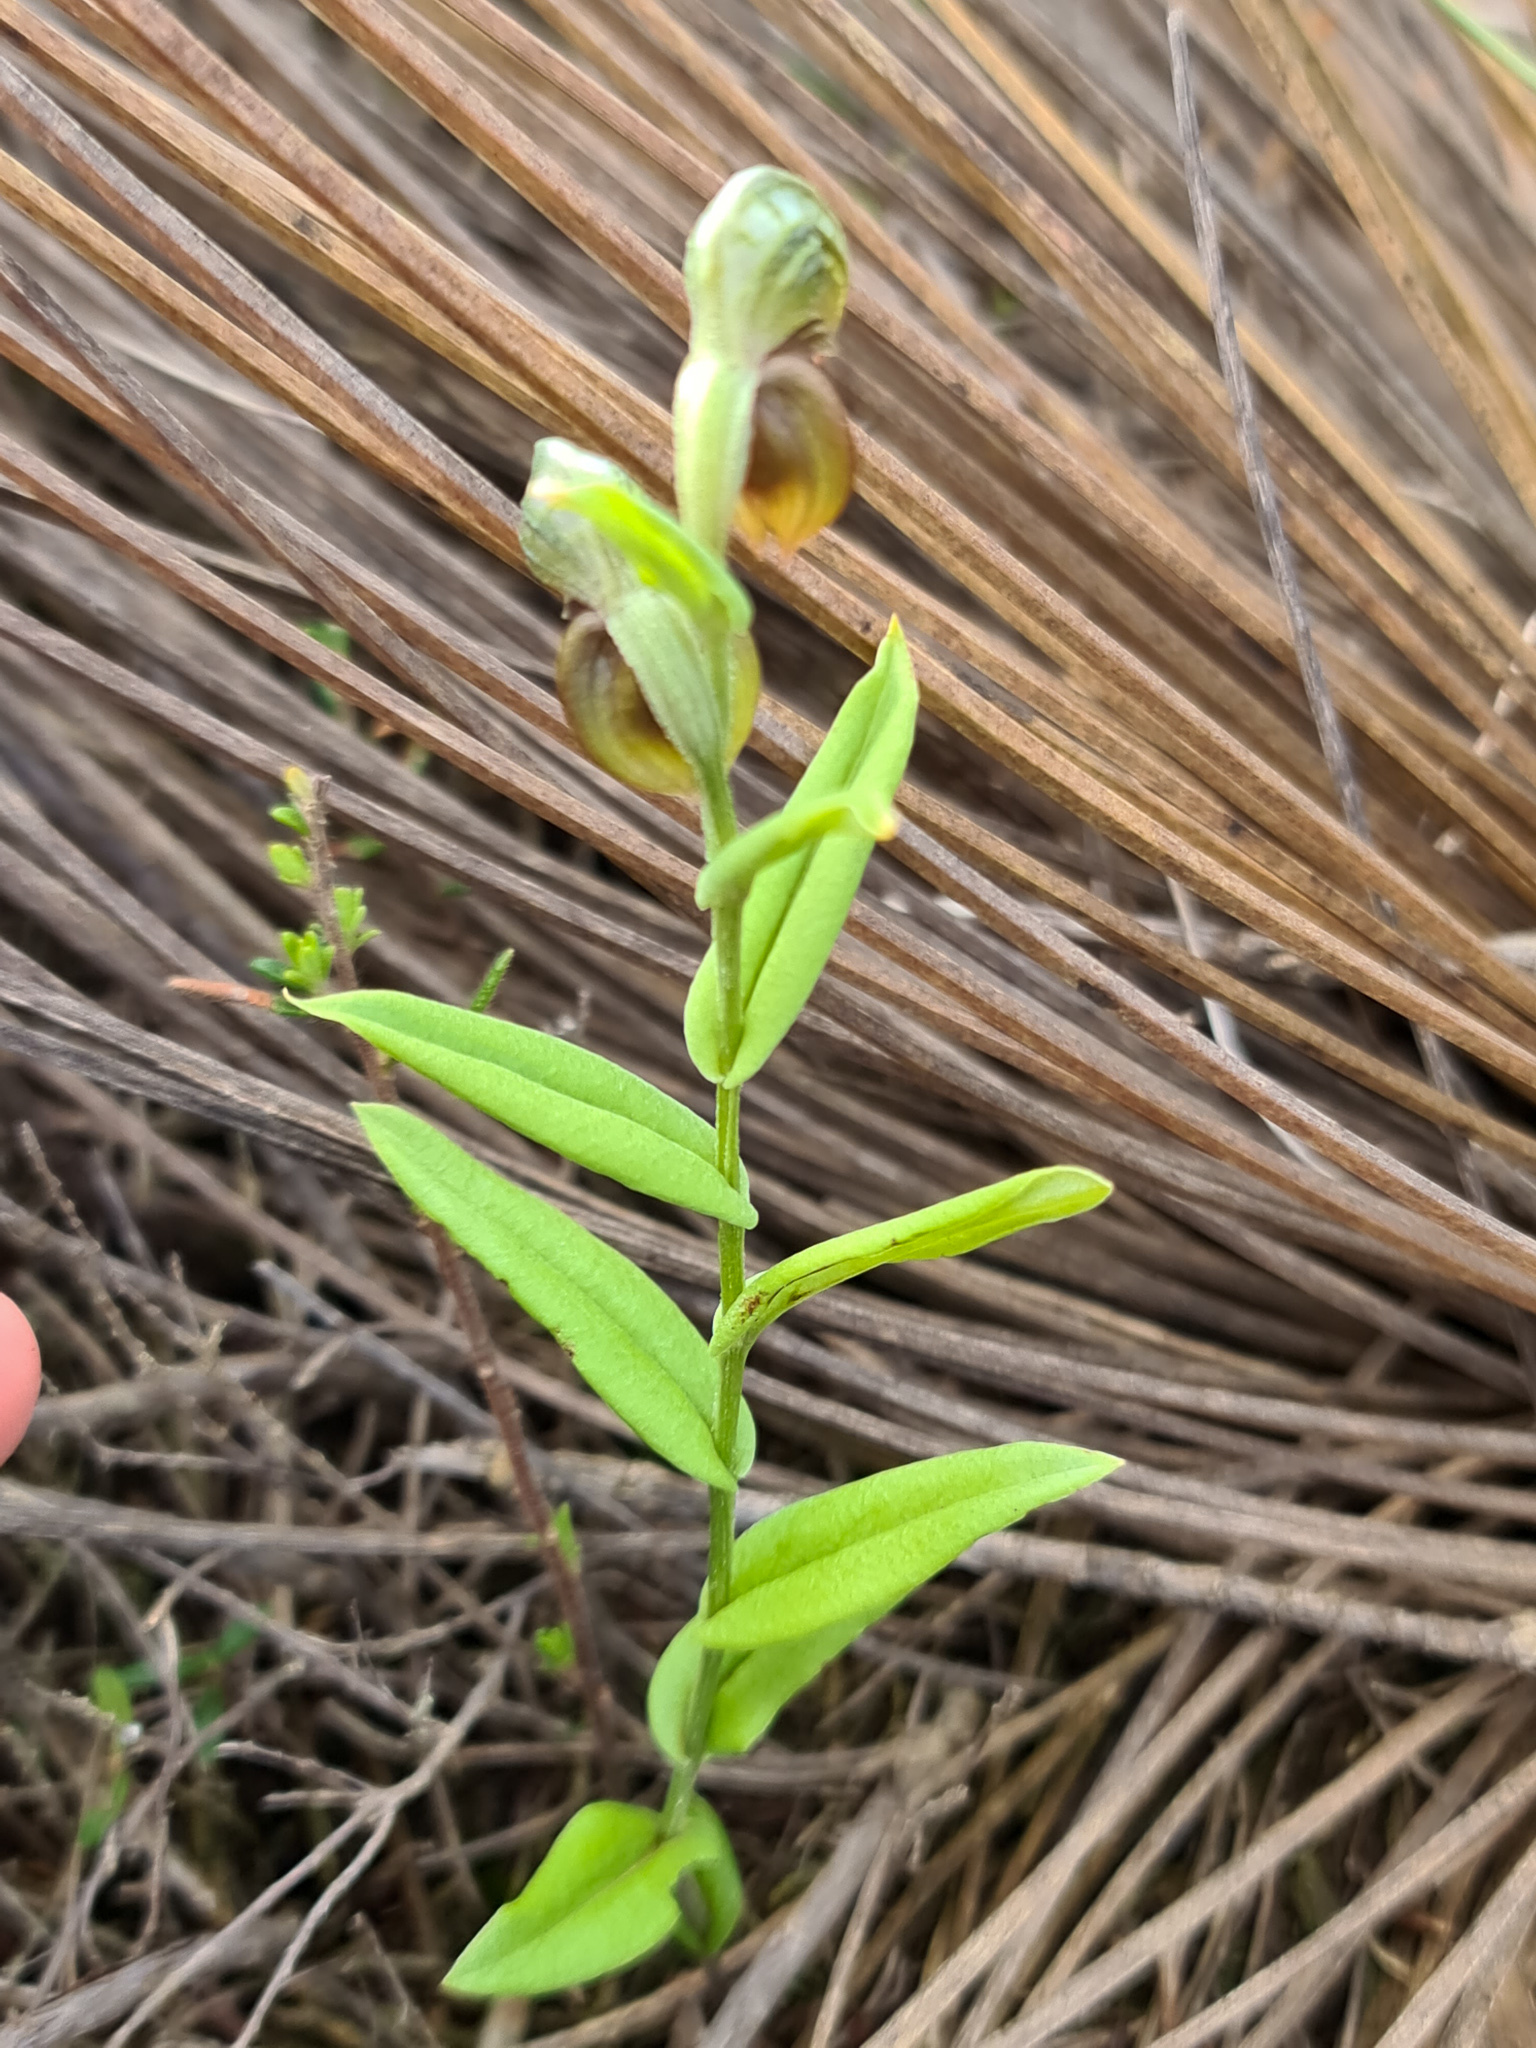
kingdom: Plantae
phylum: Tracheophyta
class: Liliopsida
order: Asparagales
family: Orchidaceae
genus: Pterostylis
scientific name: Pterostylis sanguinea
